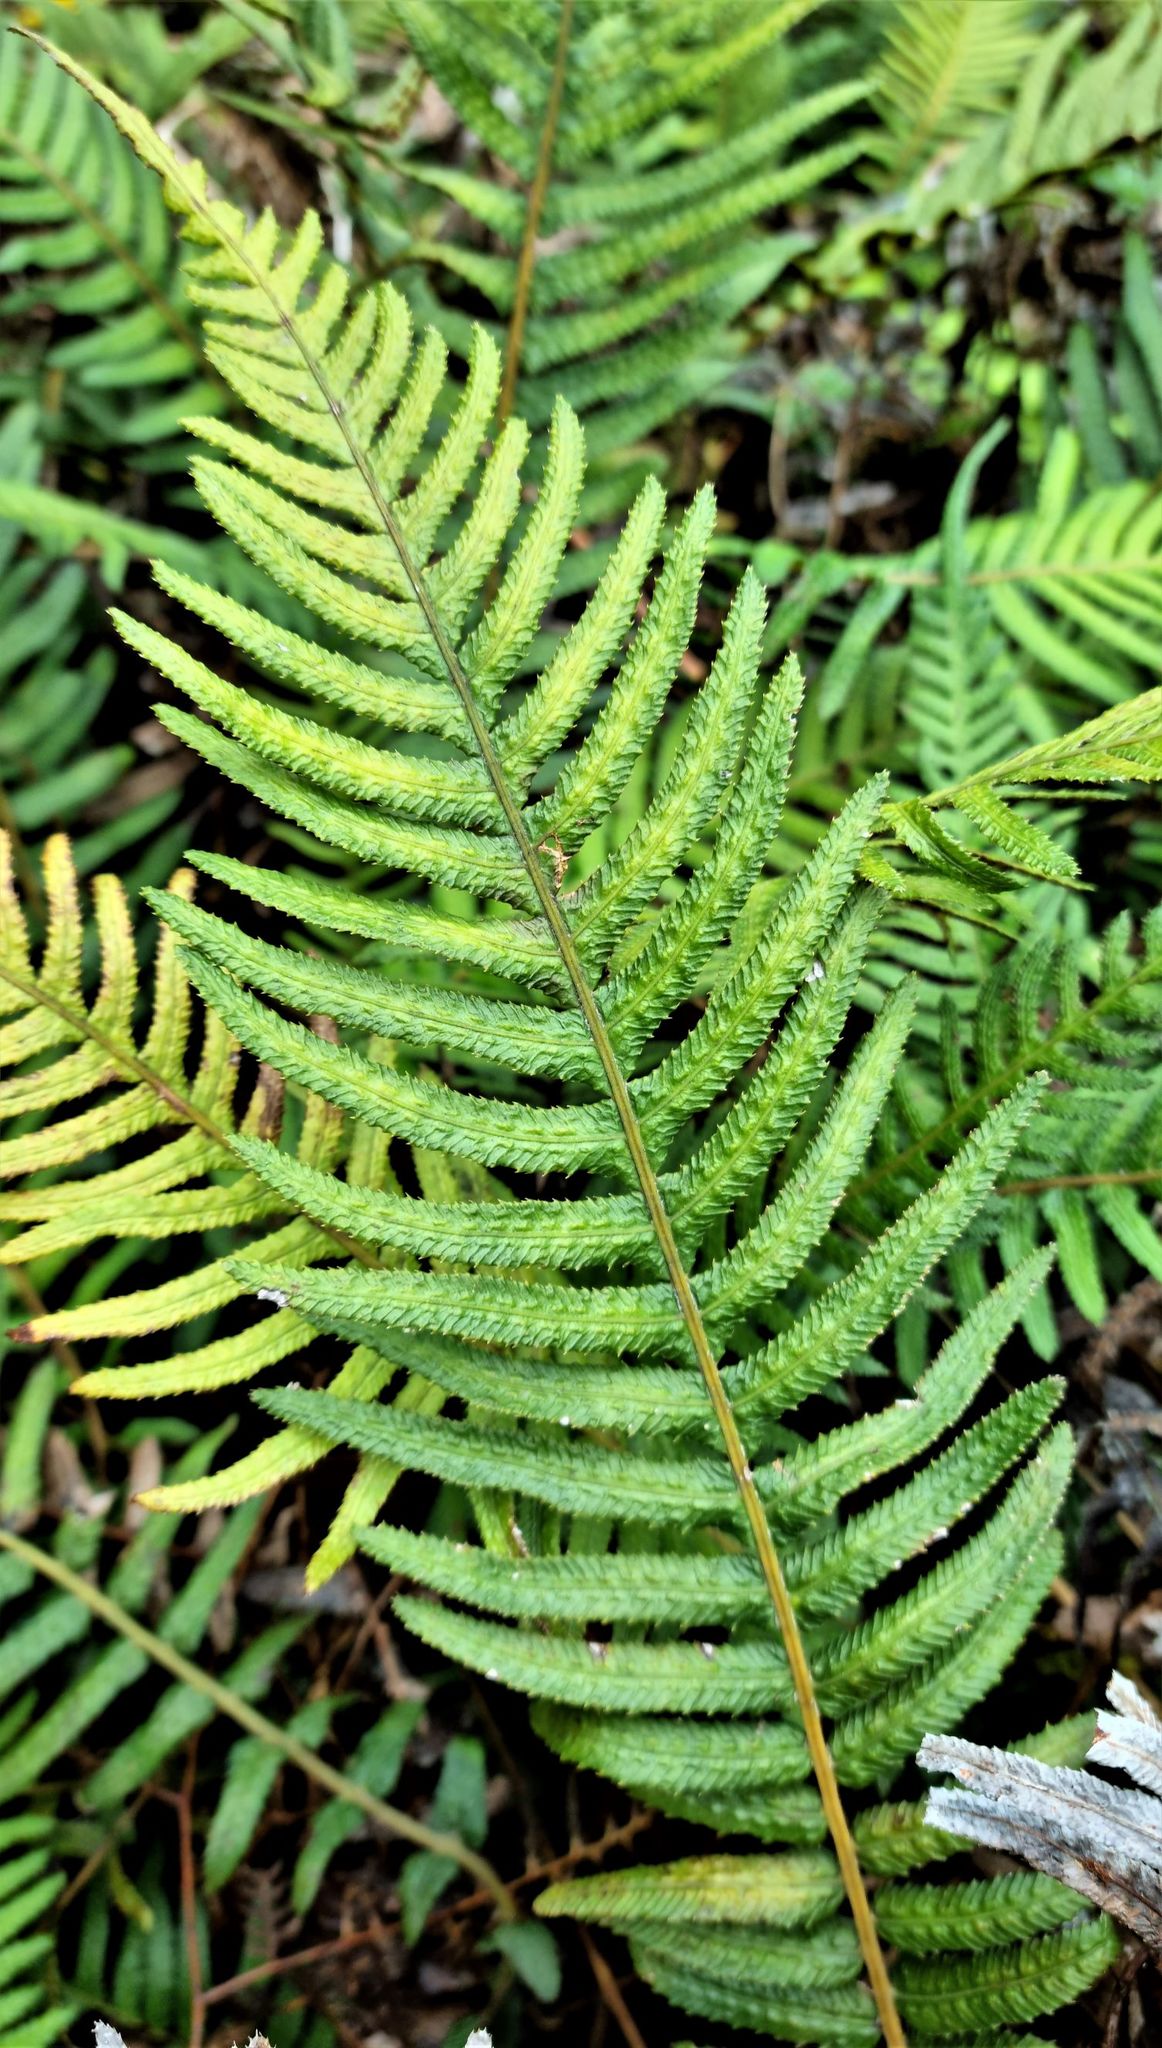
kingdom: Plantae
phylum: Tracheophyta
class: Polypodiopsida
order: Polypodiales
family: Blechnaceae
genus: Doodia
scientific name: Doodia australis
